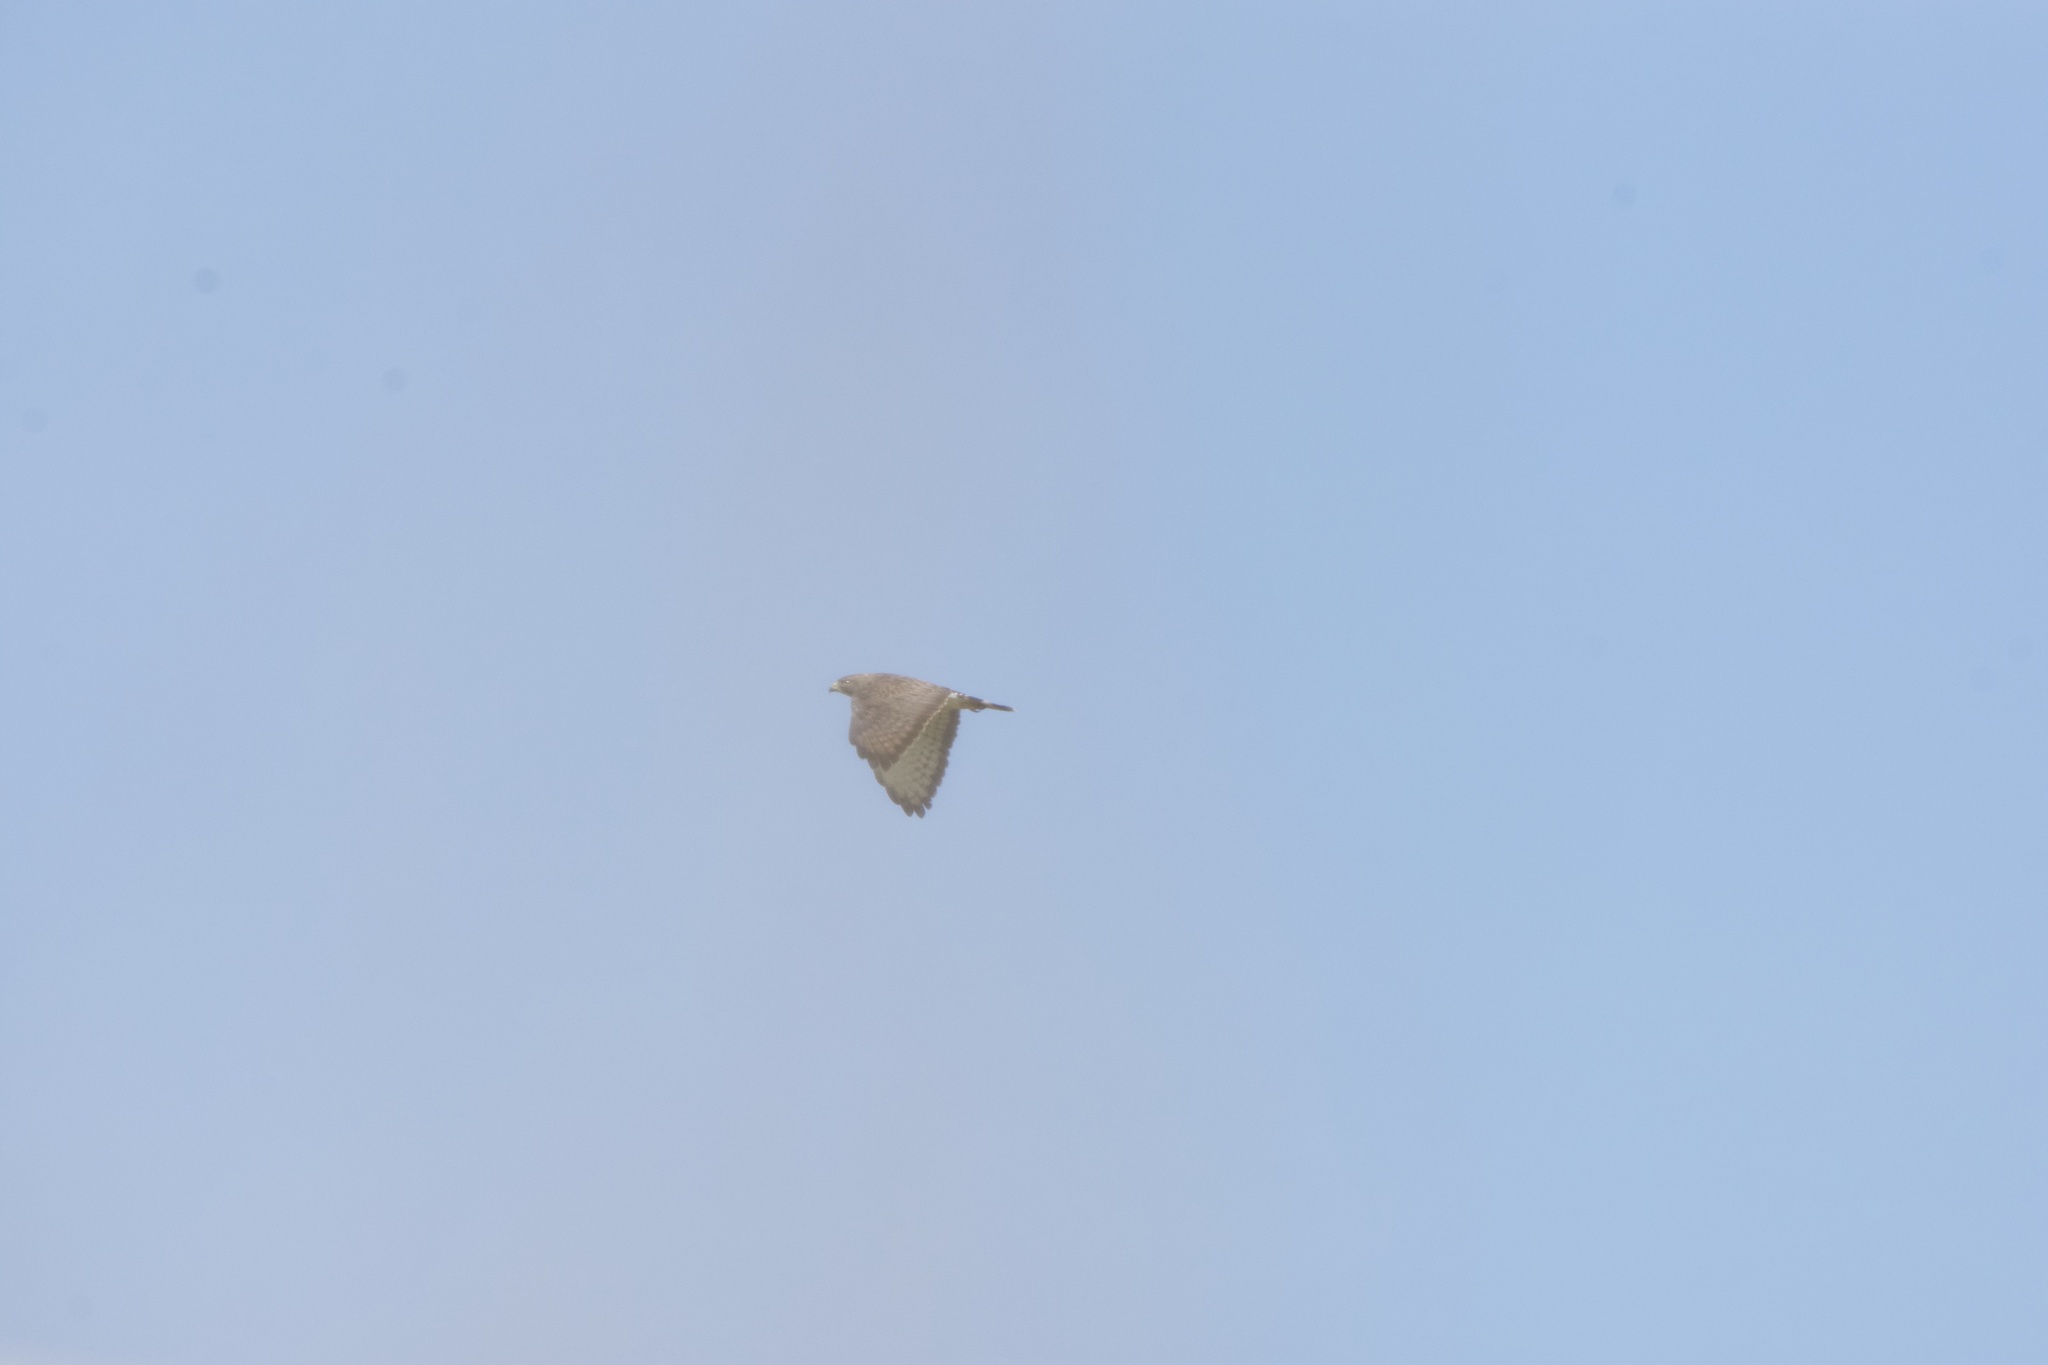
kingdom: Animalia
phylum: Chordata
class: Aves
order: Accipitriformes
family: Accipitridae
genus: Buteo
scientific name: Buteo platypterus
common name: Broad-winged hawk
